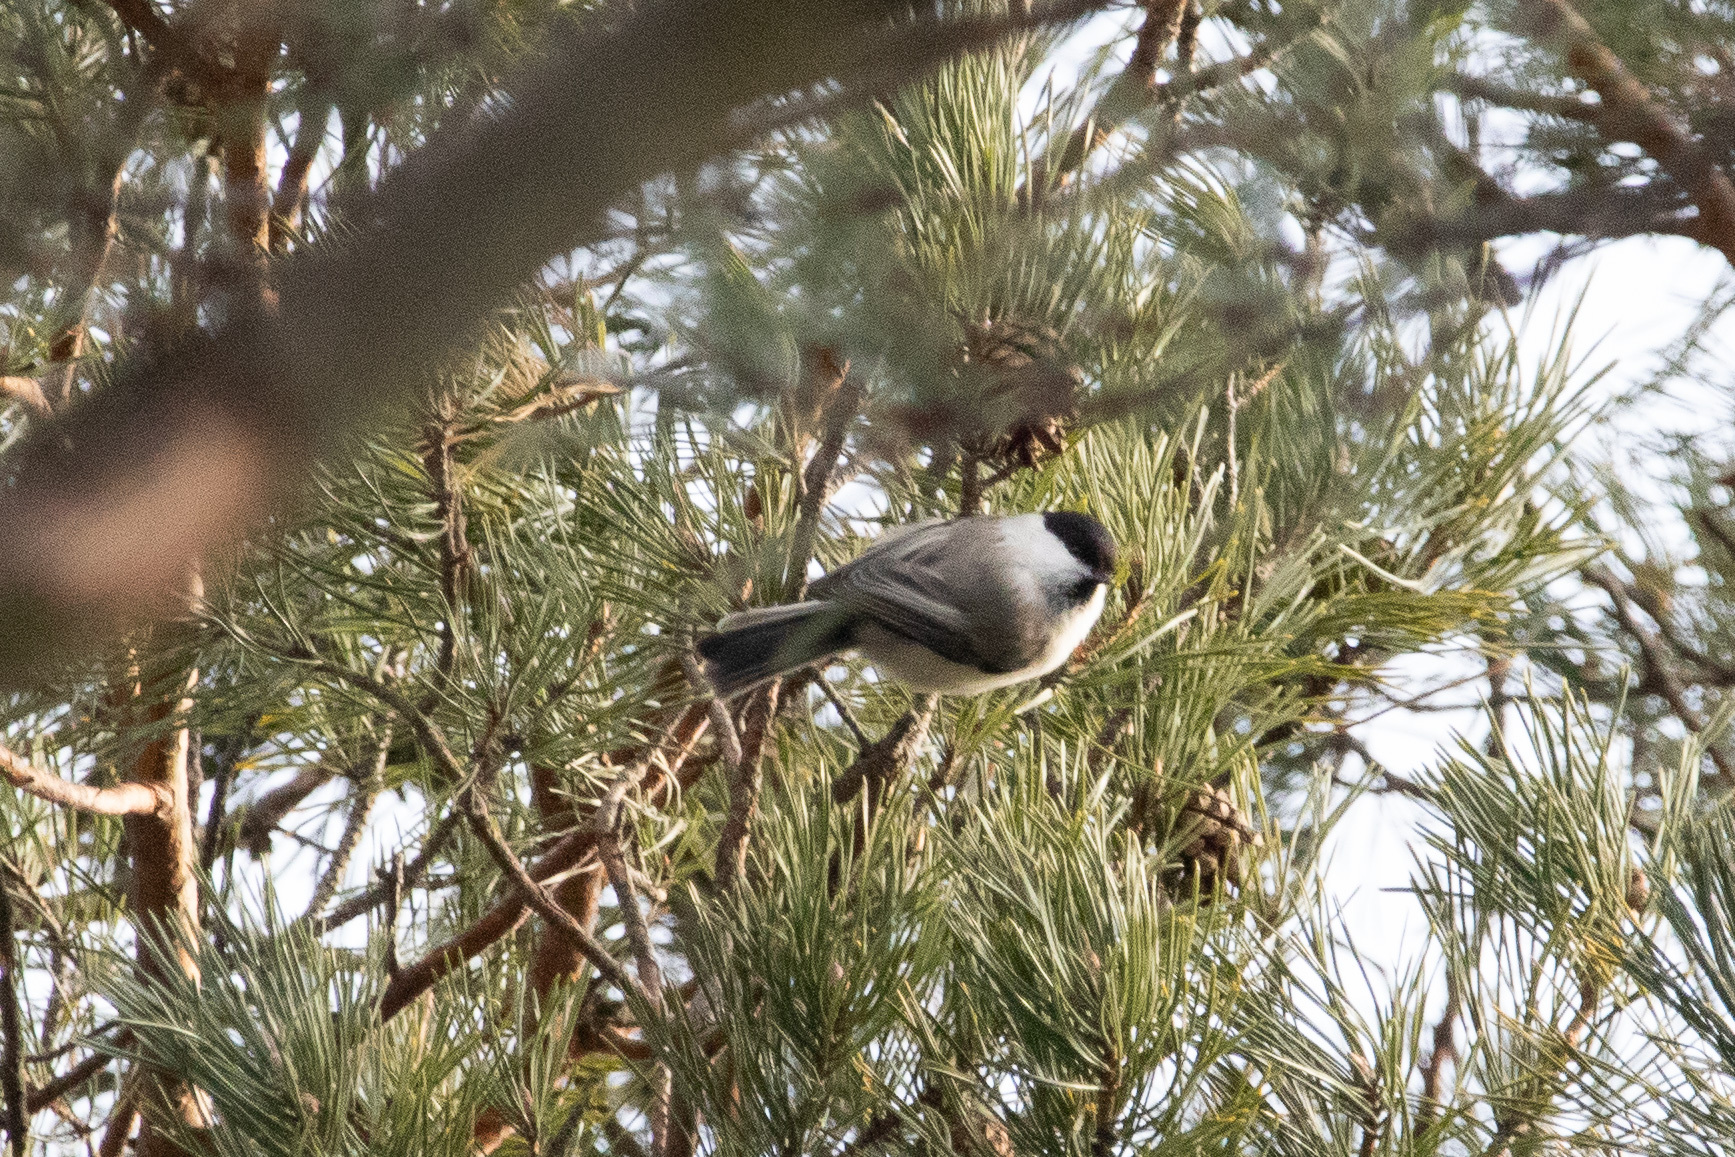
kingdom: Animalia
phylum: Chordata
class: Aves
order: Passeriformes
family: Paridae
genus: Poecile
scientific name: Poecile montanus
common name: Willow tit
